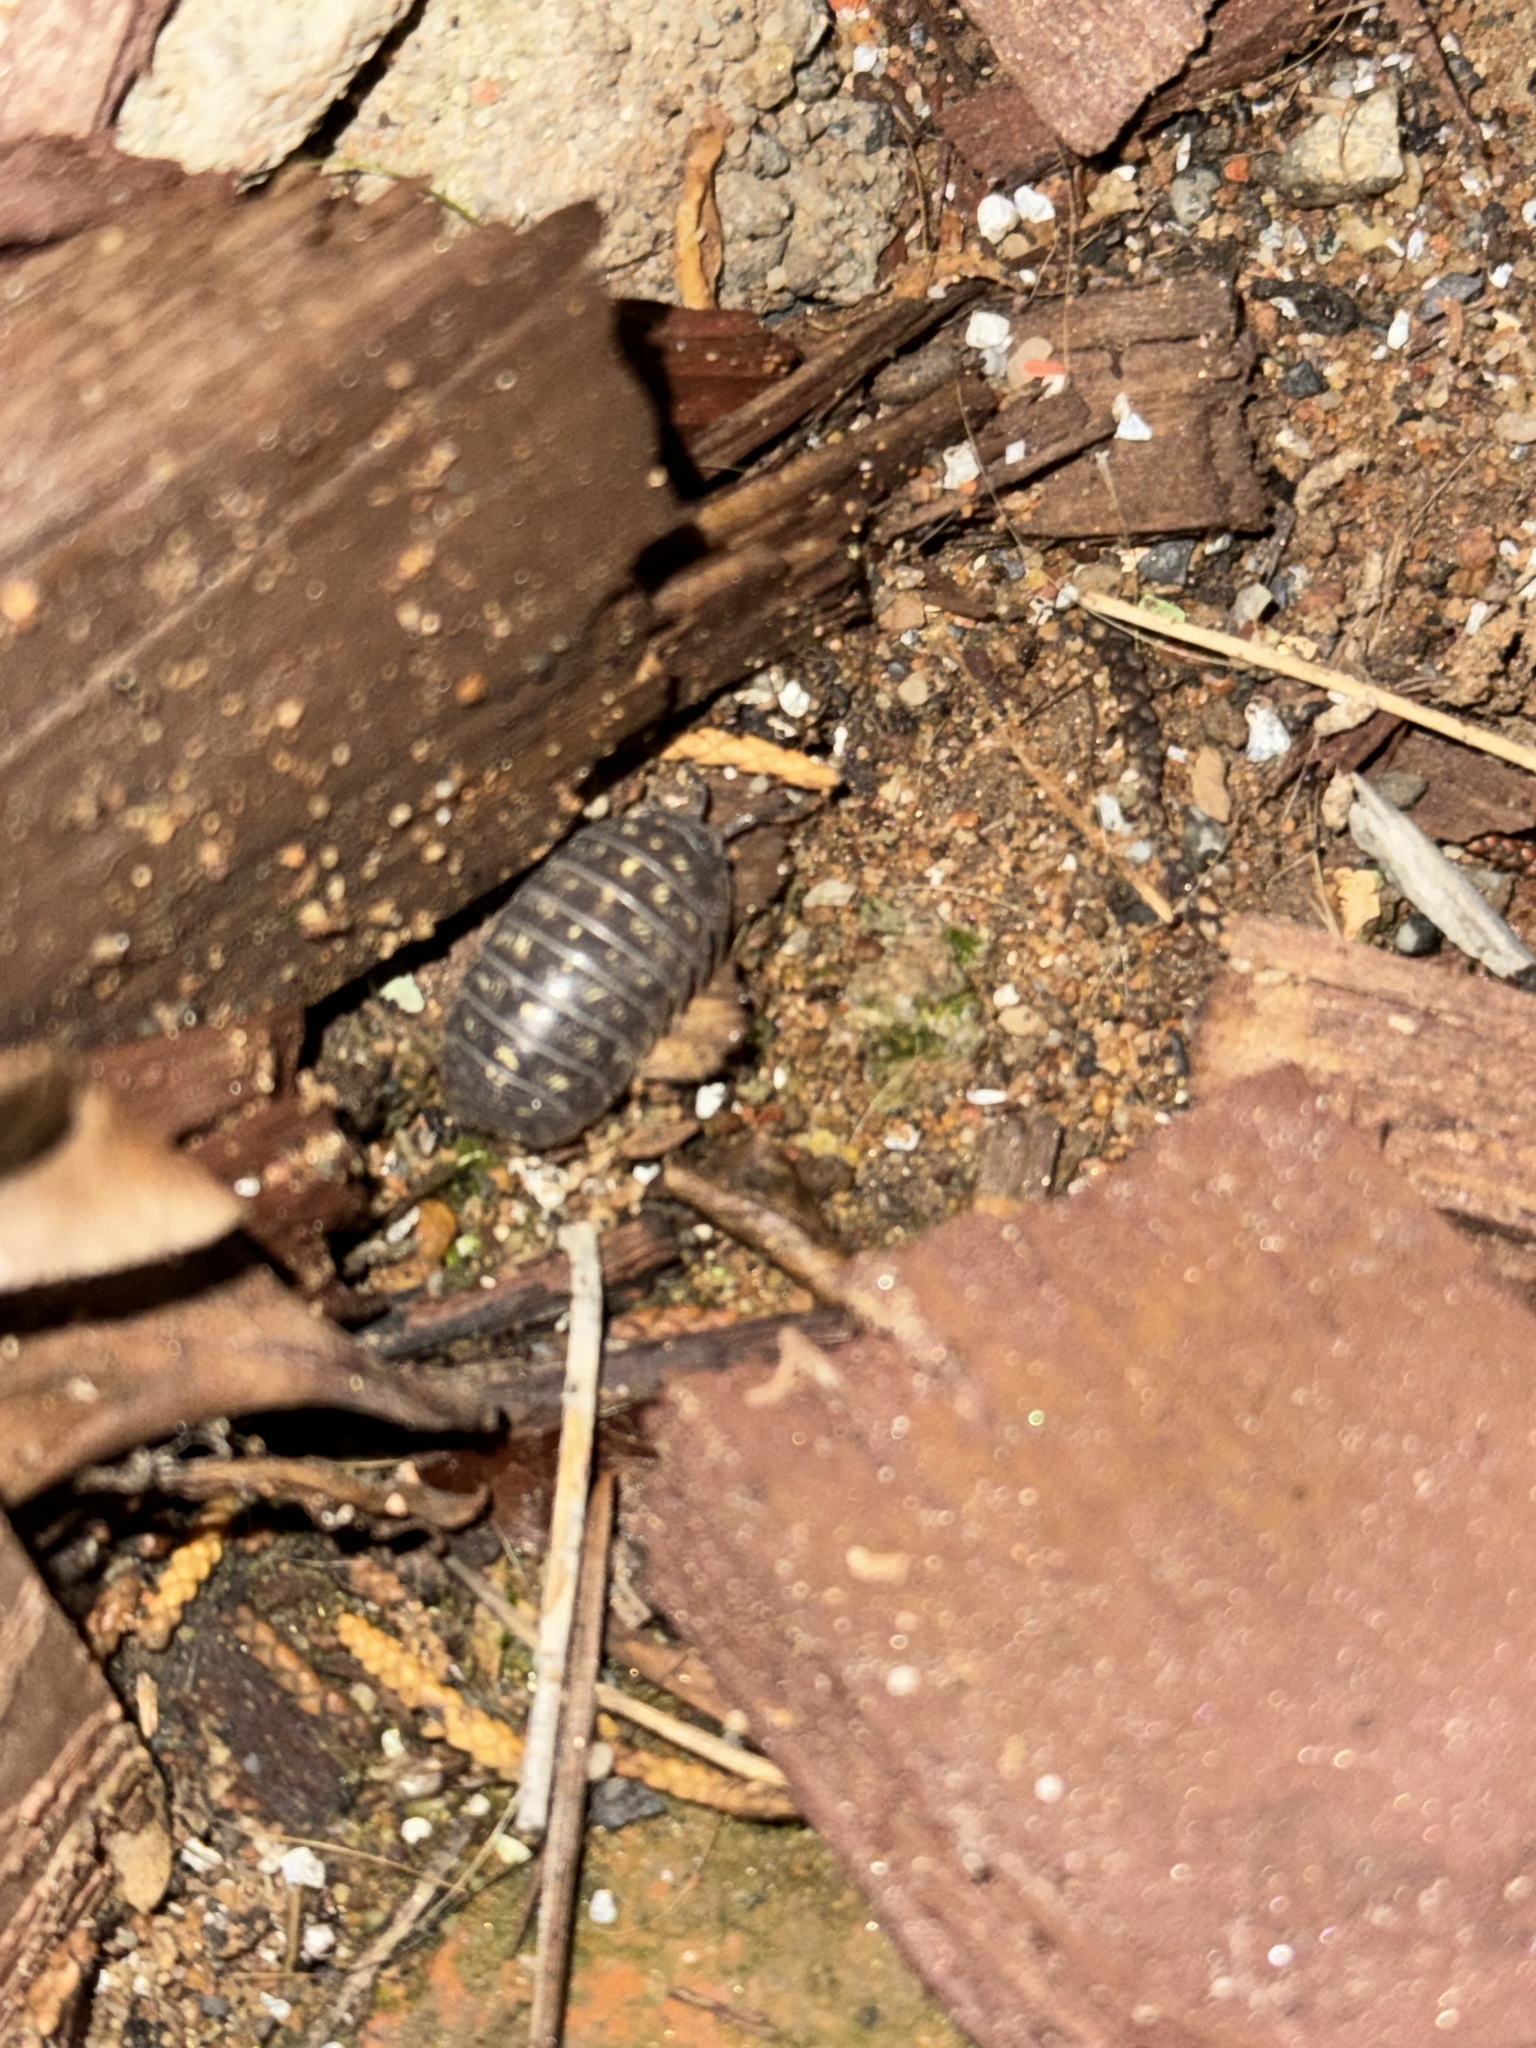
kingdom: Animalia
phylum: Arthropoda
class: Malacostraca
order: Isopoda
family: Armadillidiidae
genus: Armadillidium
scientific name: Armadillidium vulgare
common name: Common pill woodlouse
